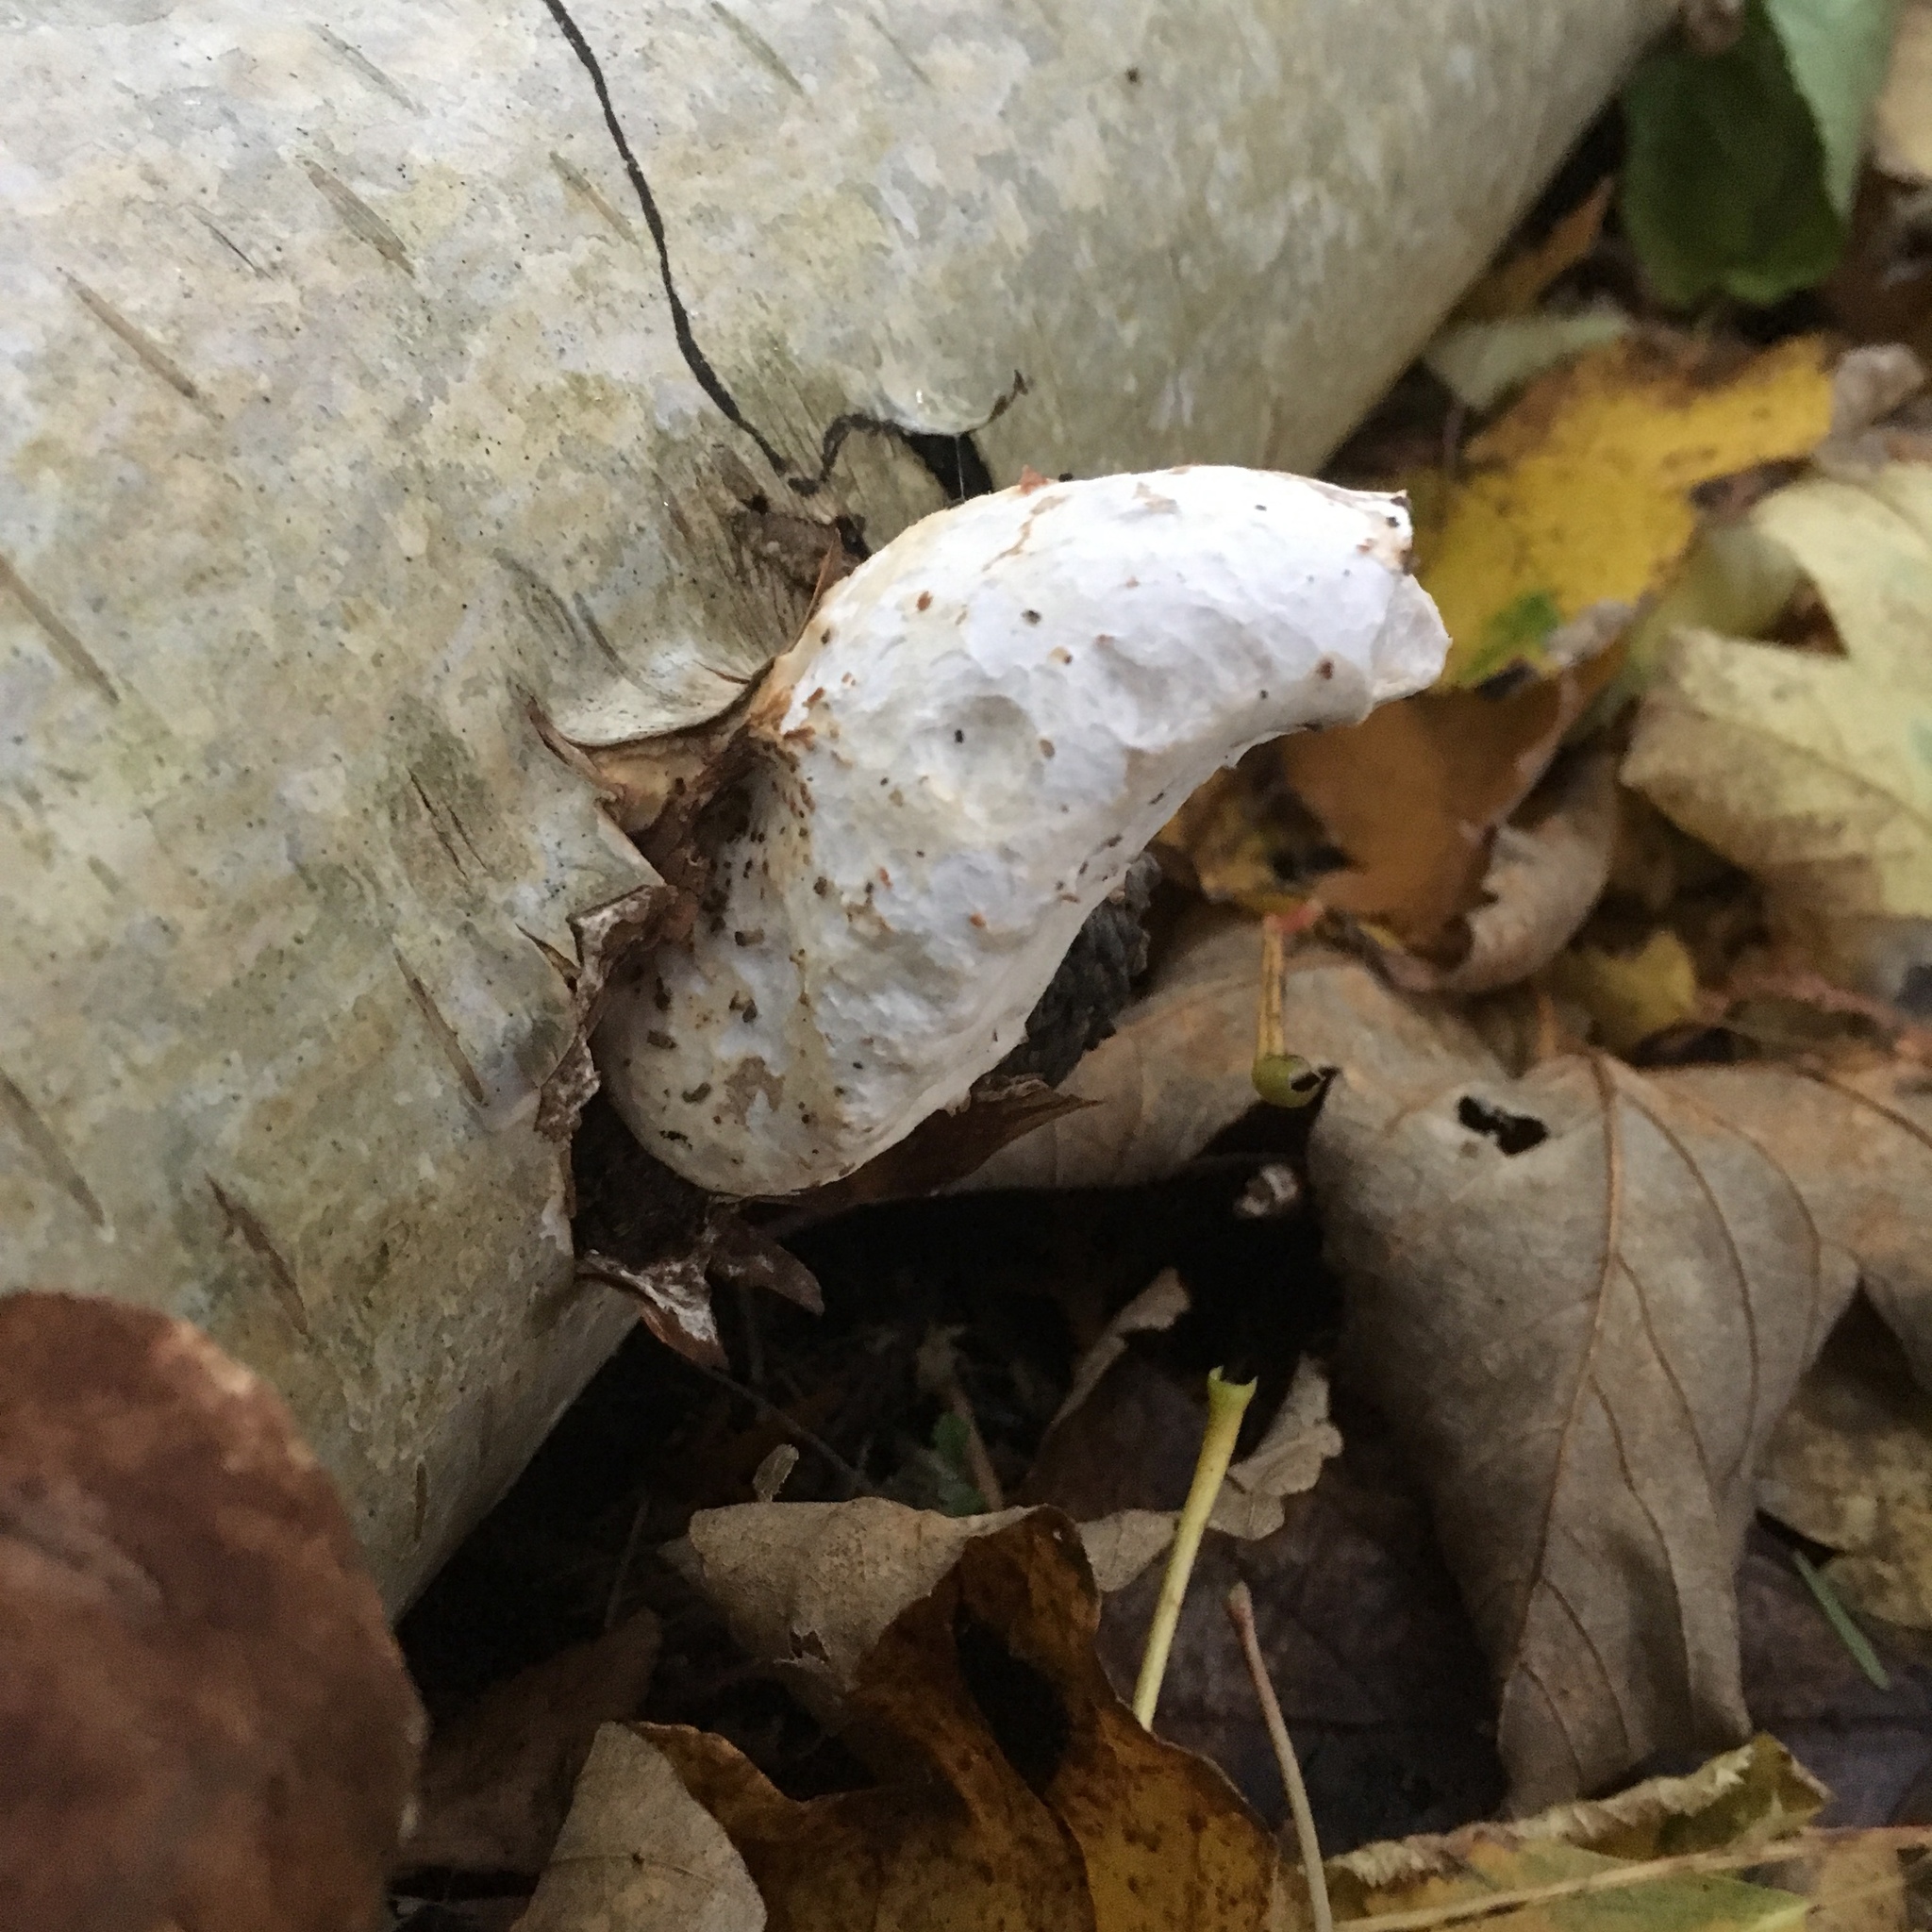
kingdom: Fungi
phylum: Basidiomycota
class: Agaricomycetes
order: Polyporales
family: Fomitopsidaceae
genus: Fomitopsis
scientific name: Fomitopsis betulina
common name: Birch polypore
